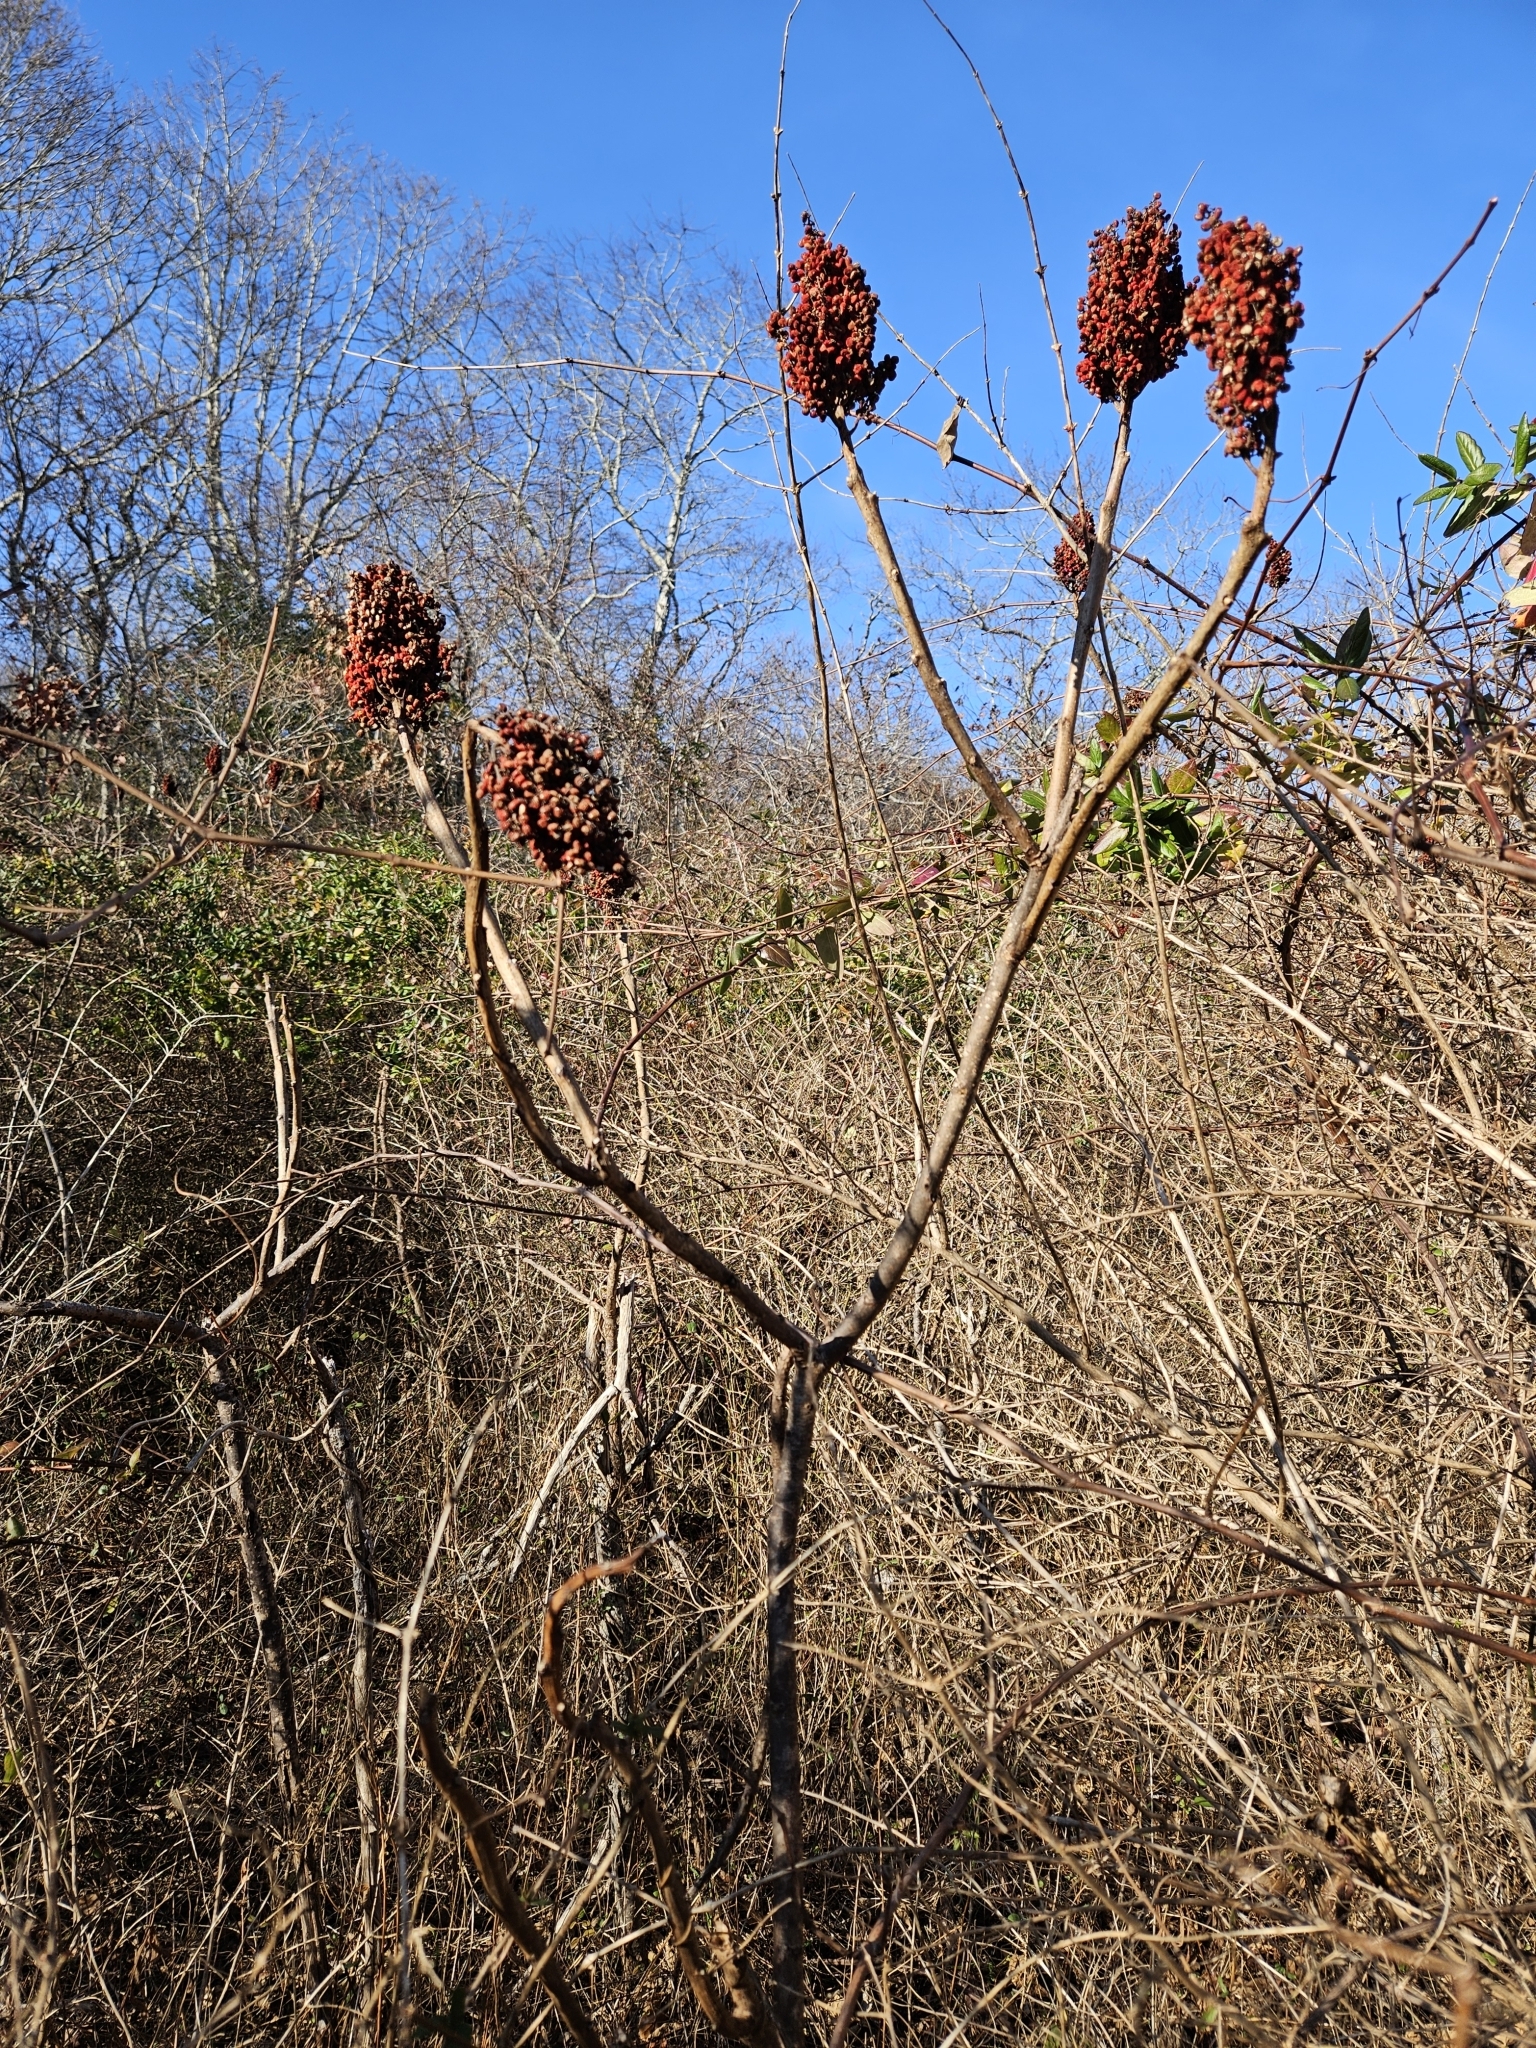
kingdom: Plantae
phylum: Tracheophyta
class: Magnoliopsida
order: Sapindales
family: Anacardiaceae
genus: Rhus
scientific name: Rhus glabra
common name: Scarlet sumac
